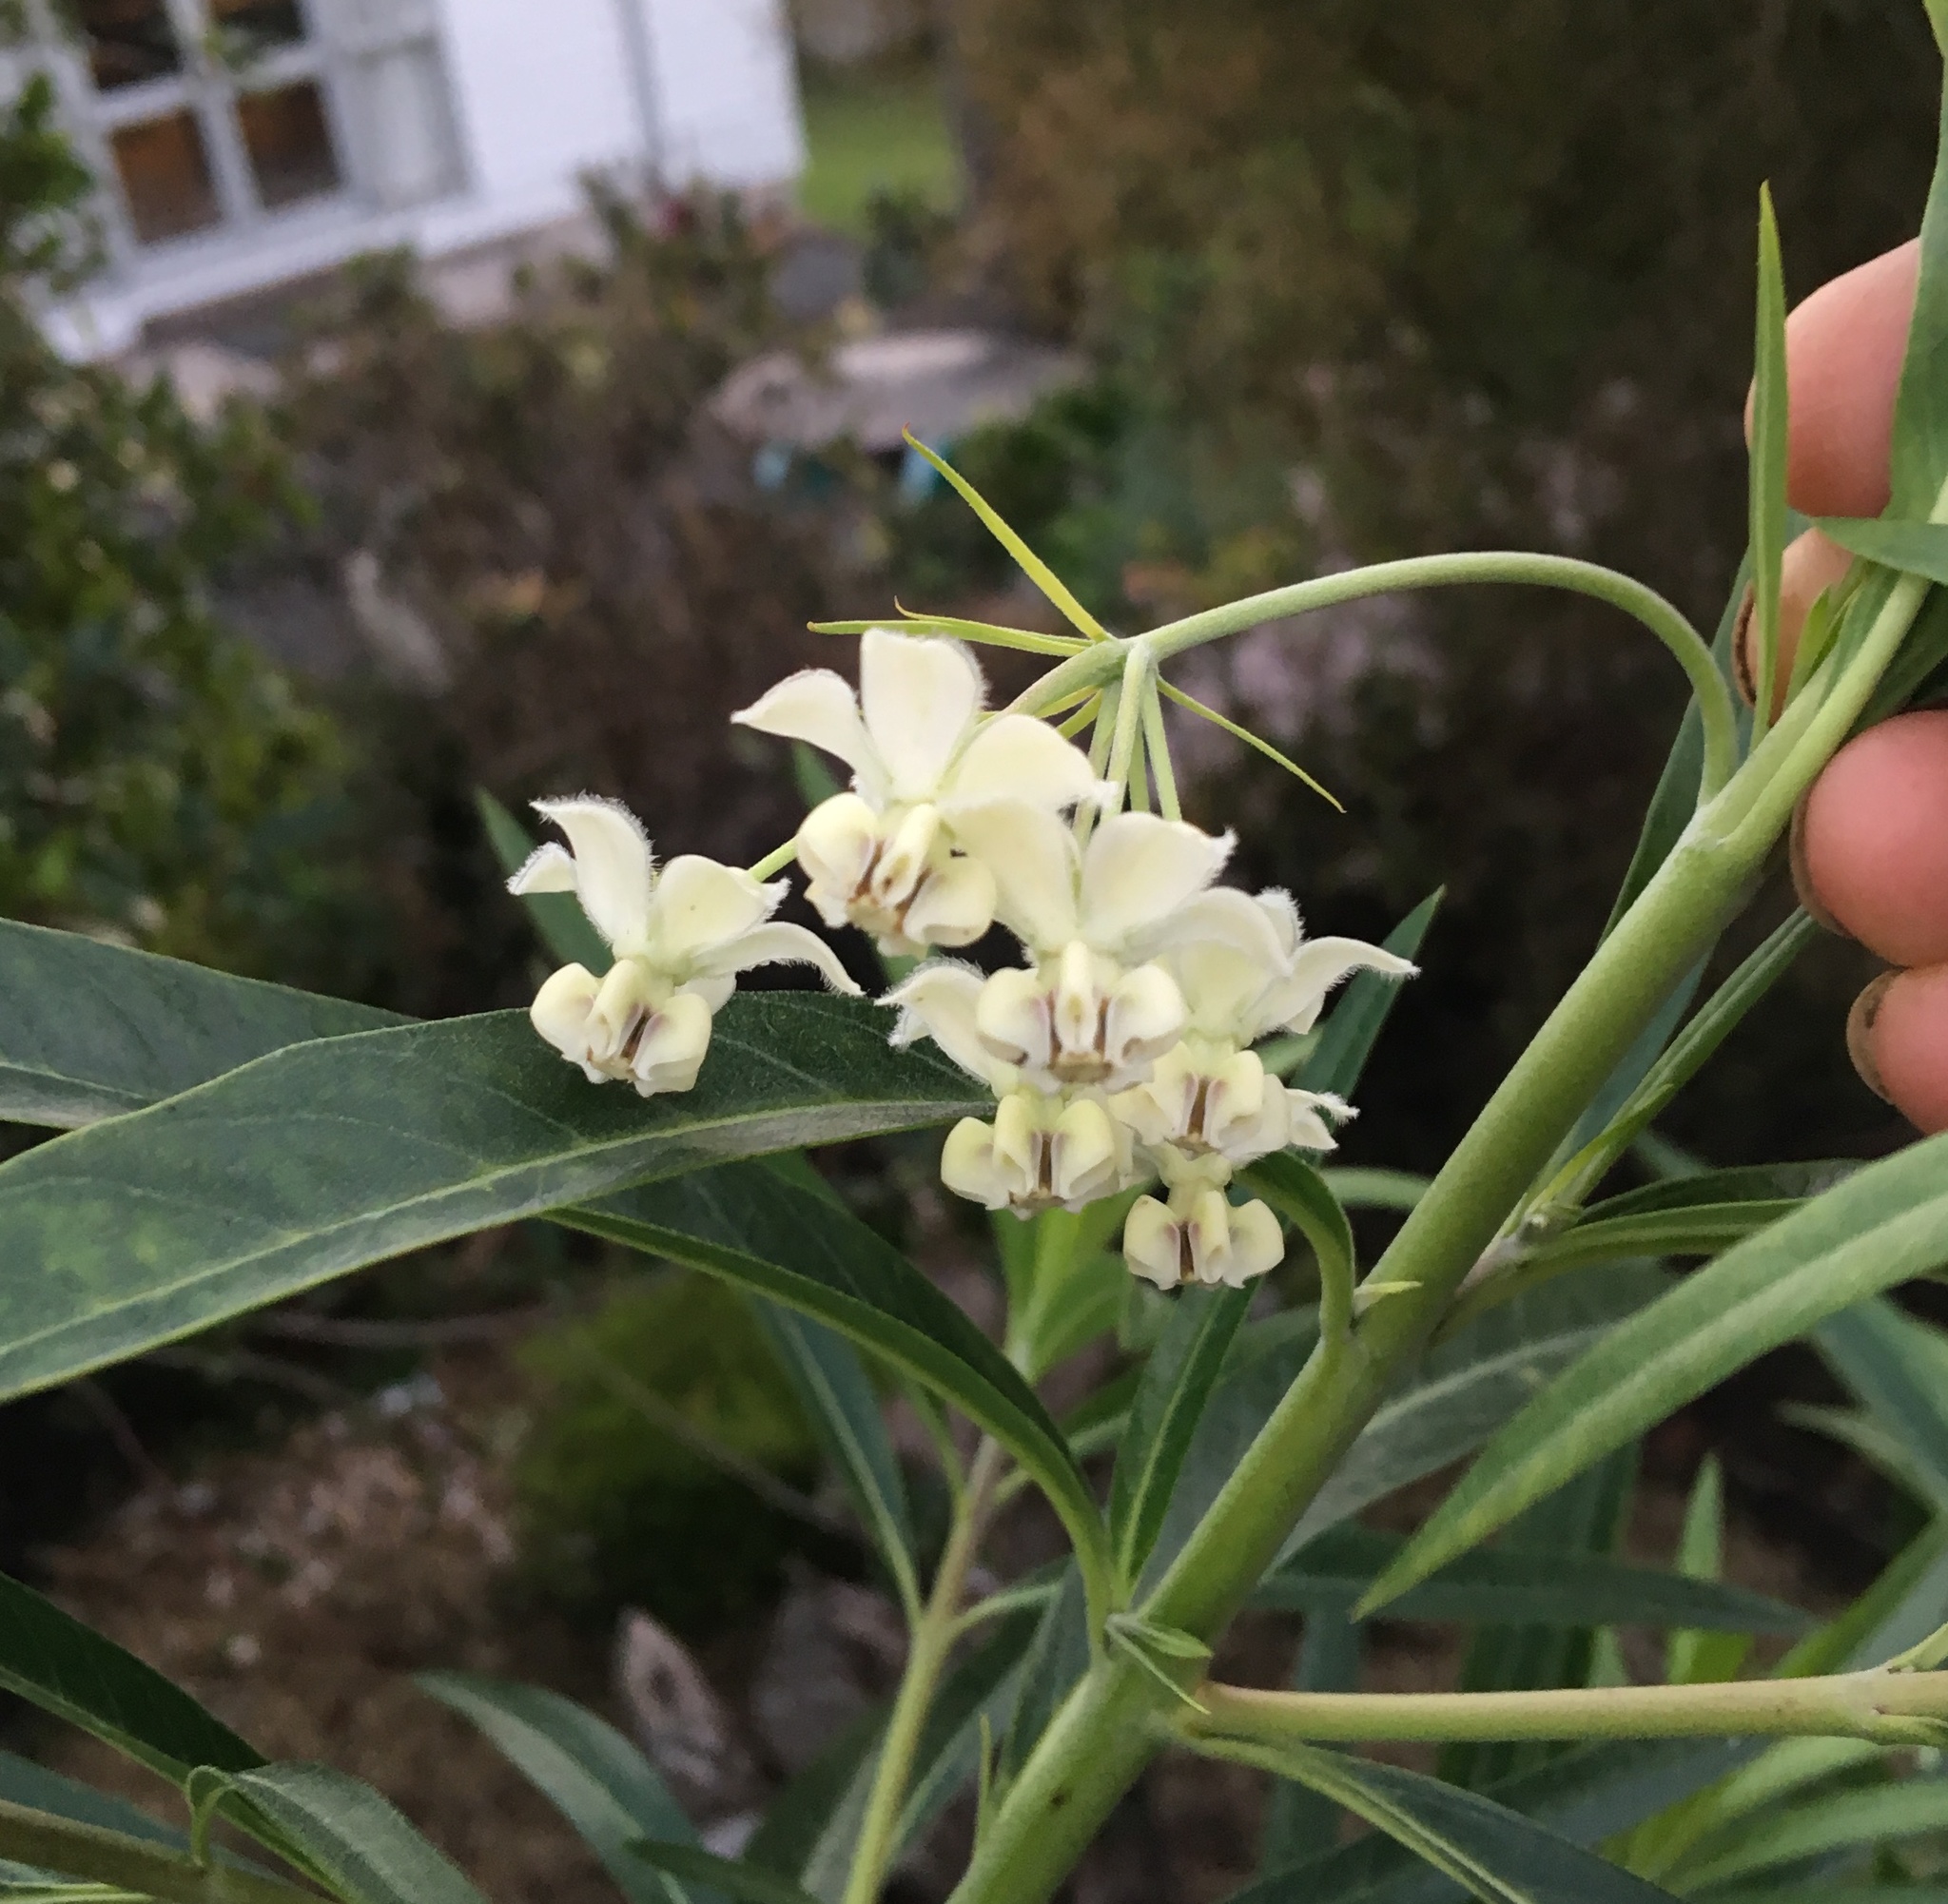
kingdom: Plantae
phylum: Tracheophyta
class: Magnoliopsida
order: Gentianales
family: Apocynaceae
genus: Gomphocarpus
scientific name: Gomphocarpus physocarpus
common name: Balloon cotton bush
